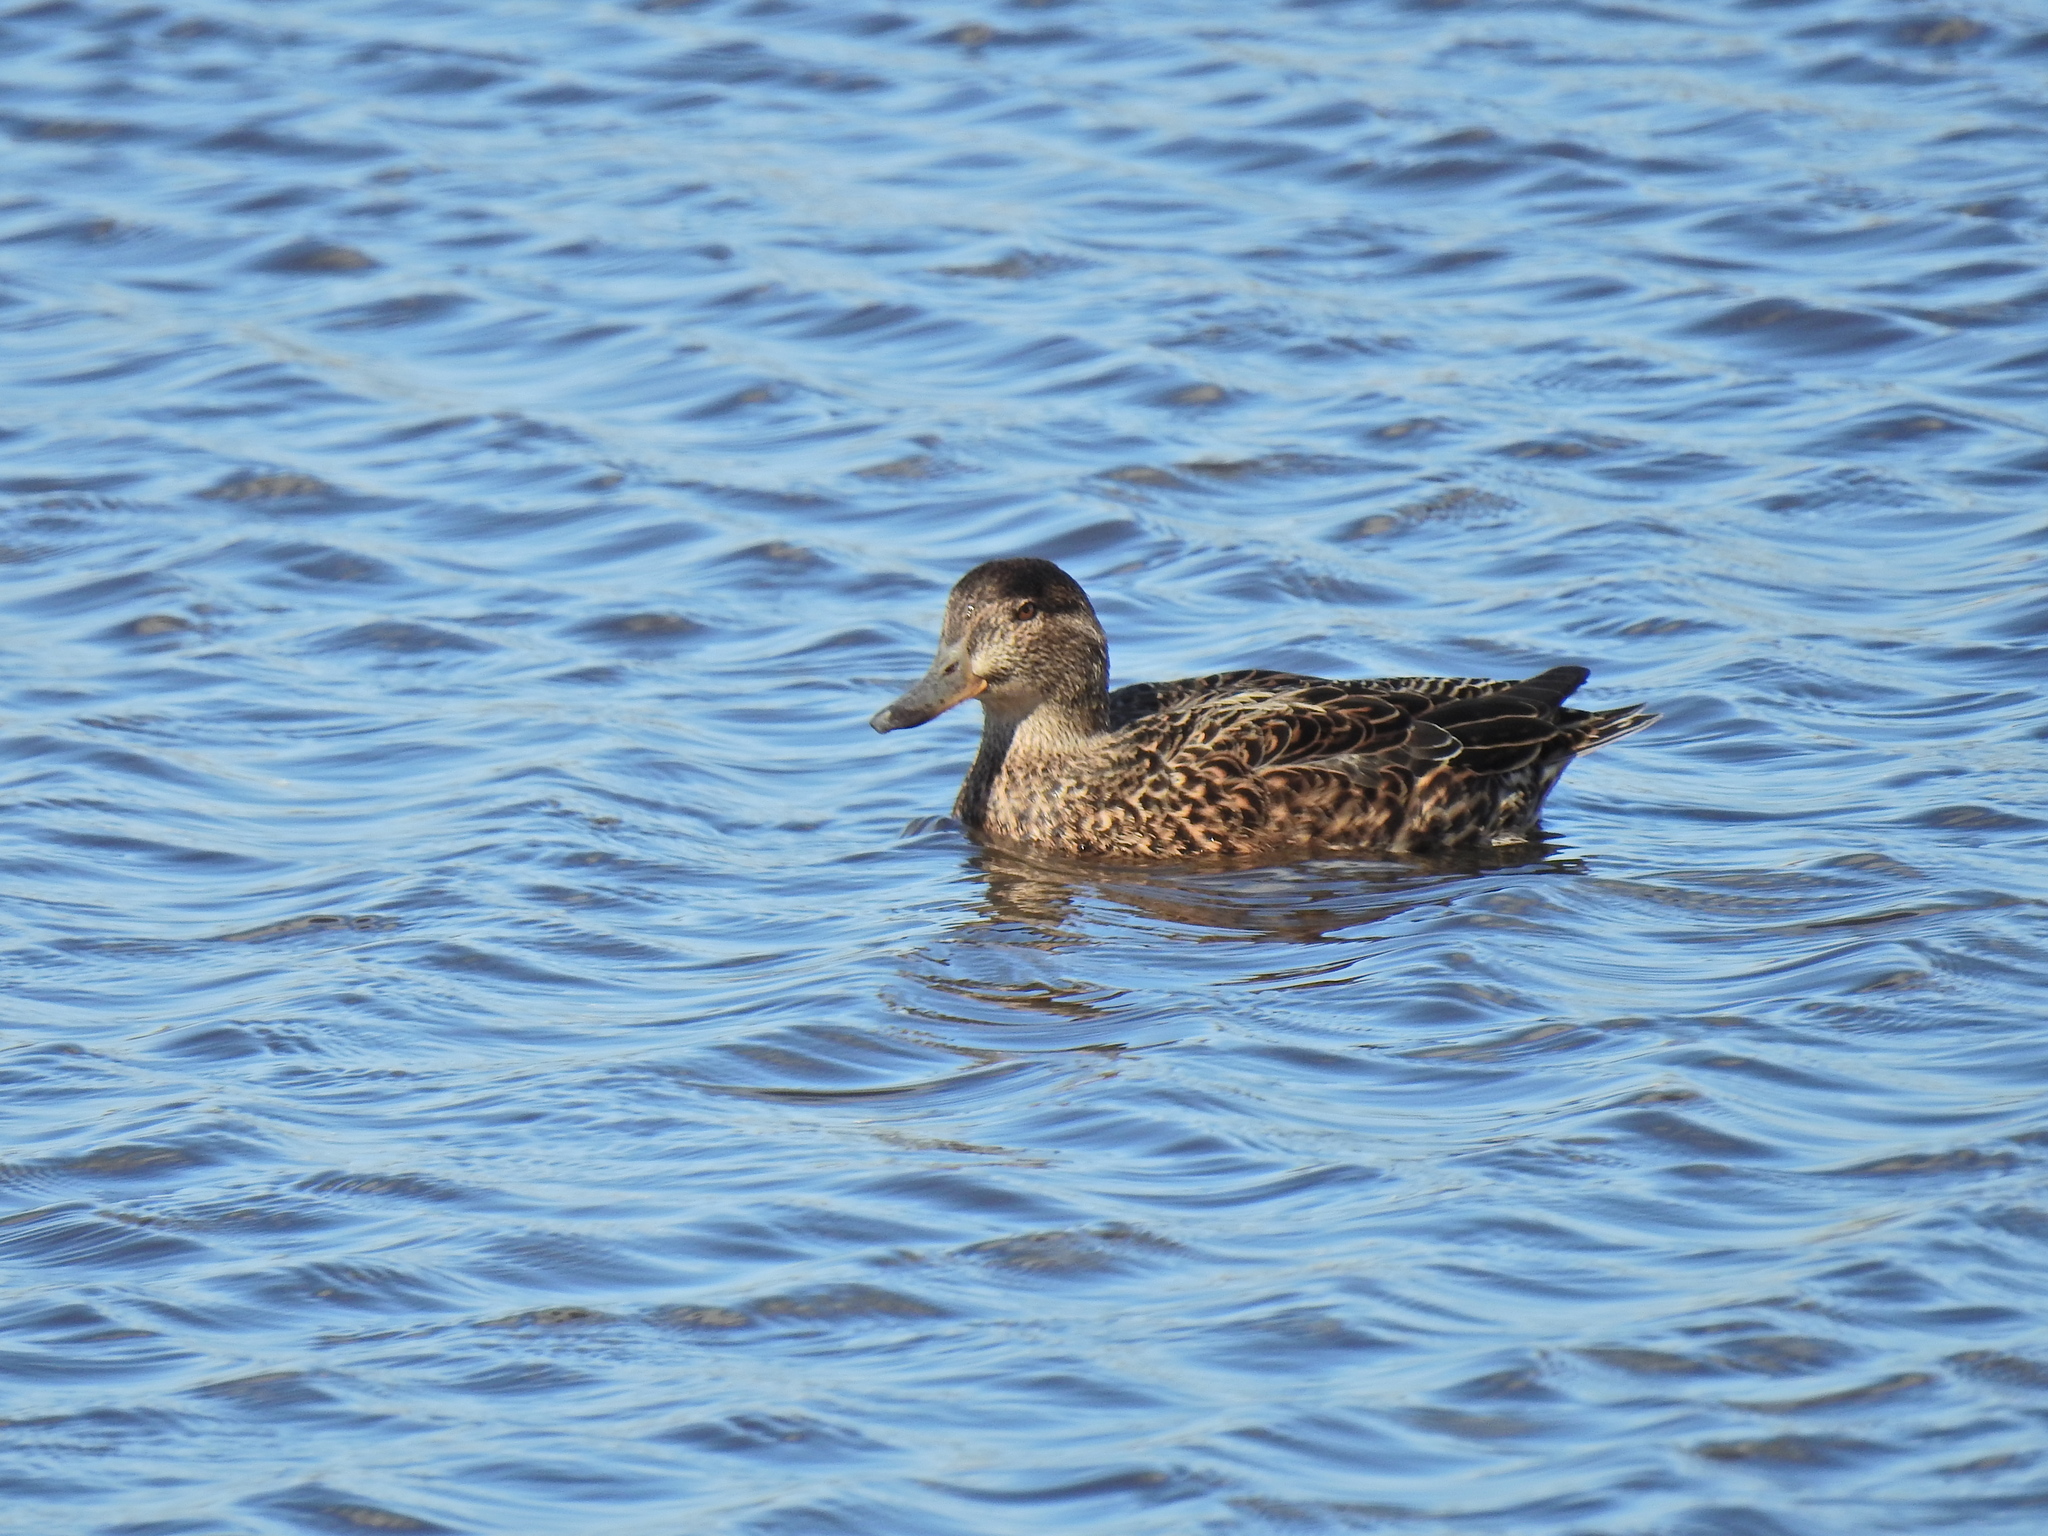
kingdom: Animalia
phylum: Chordata
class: Aves
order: Anseriformes
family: Anatidae
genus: Anas
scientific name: Anas crecca
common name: Eurasian teal
